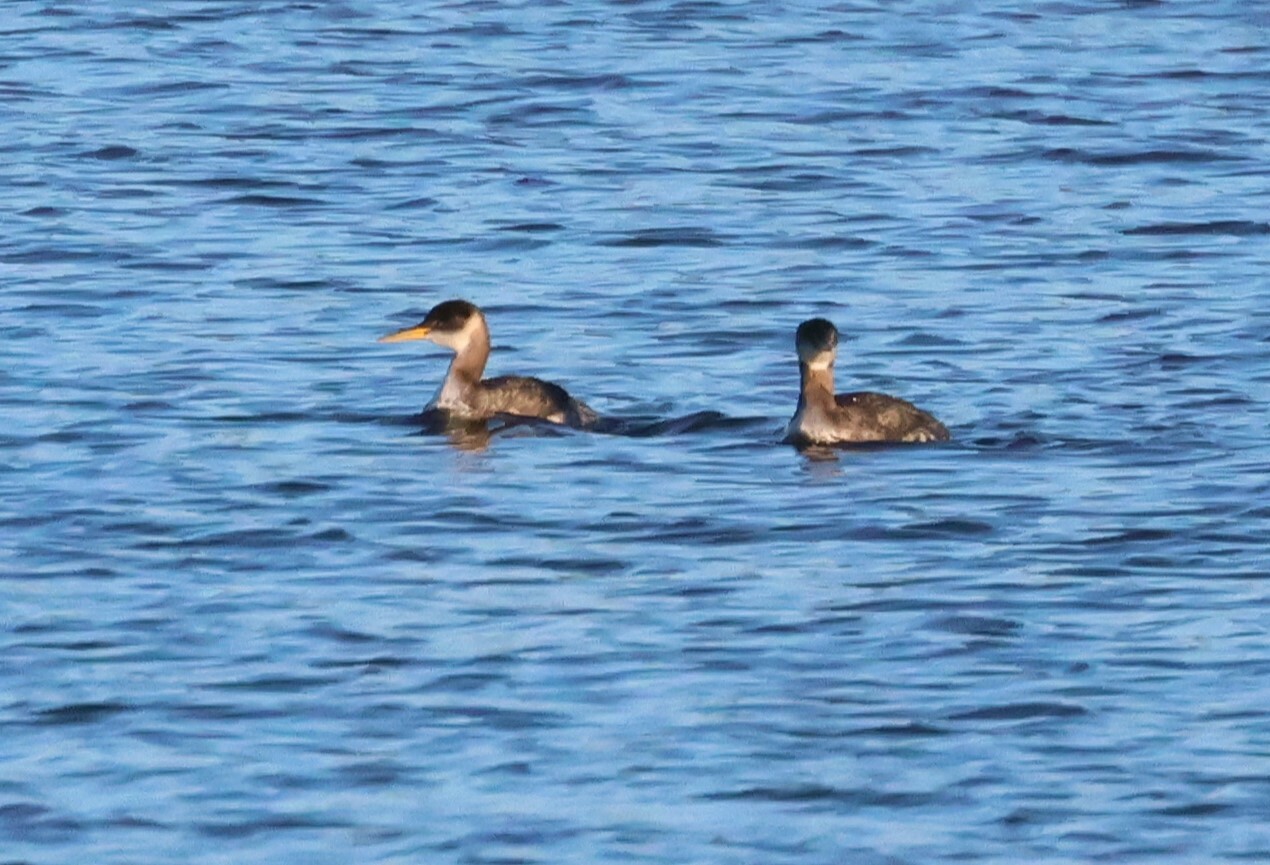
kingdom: Animalia
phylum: Chordata
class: Aves
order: Podicipediformes
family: Podicipedidae
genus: Podiceps
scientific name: Podiceps grisegena
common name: Red-necked grebe
